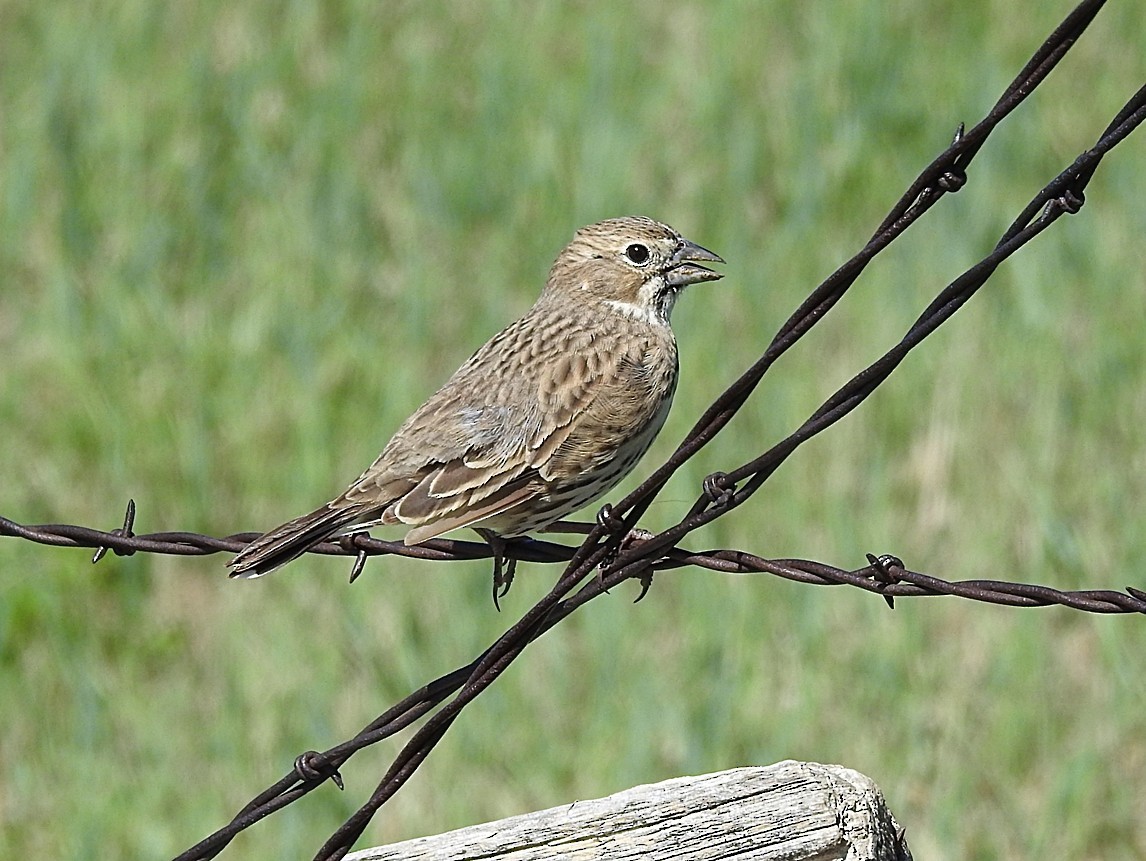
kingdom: Animalia
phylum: Chordata
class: Aves
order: Passeriformes
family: Passerellidae
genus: Calamospiza
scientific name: Calamospiza melanocorys
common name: Lark bunting
